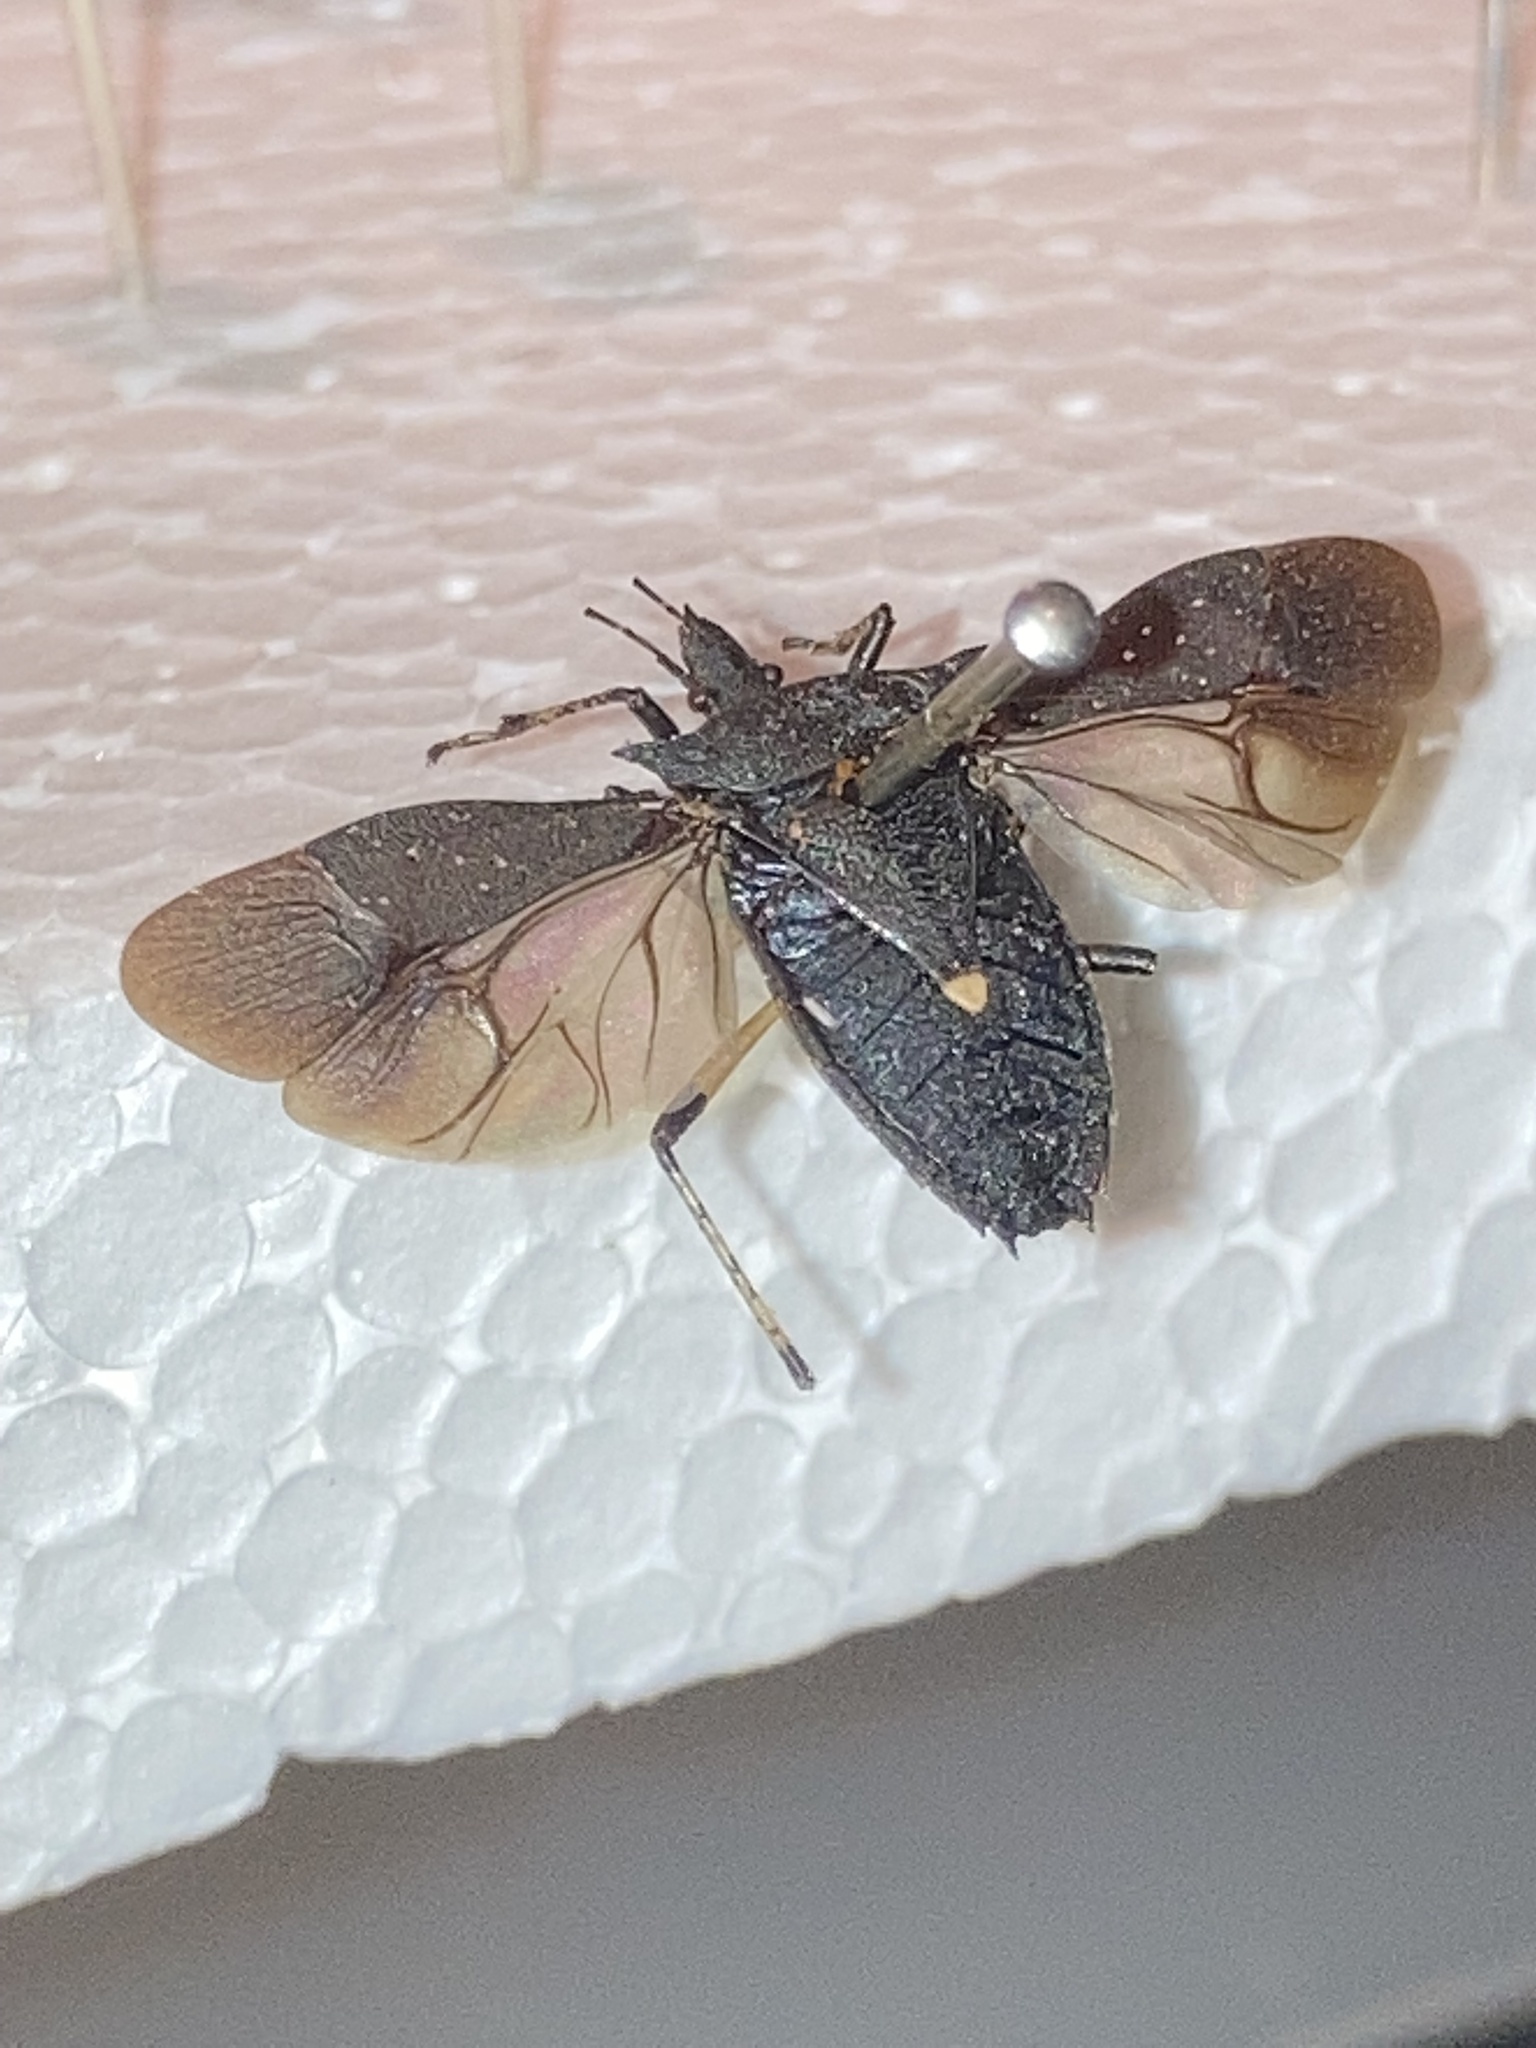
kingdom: Animalia
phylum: Arthropoda
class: Insecta
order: Hemiptera
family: Pentatomidae
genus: Proxys
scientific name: Proxys punctulatus
